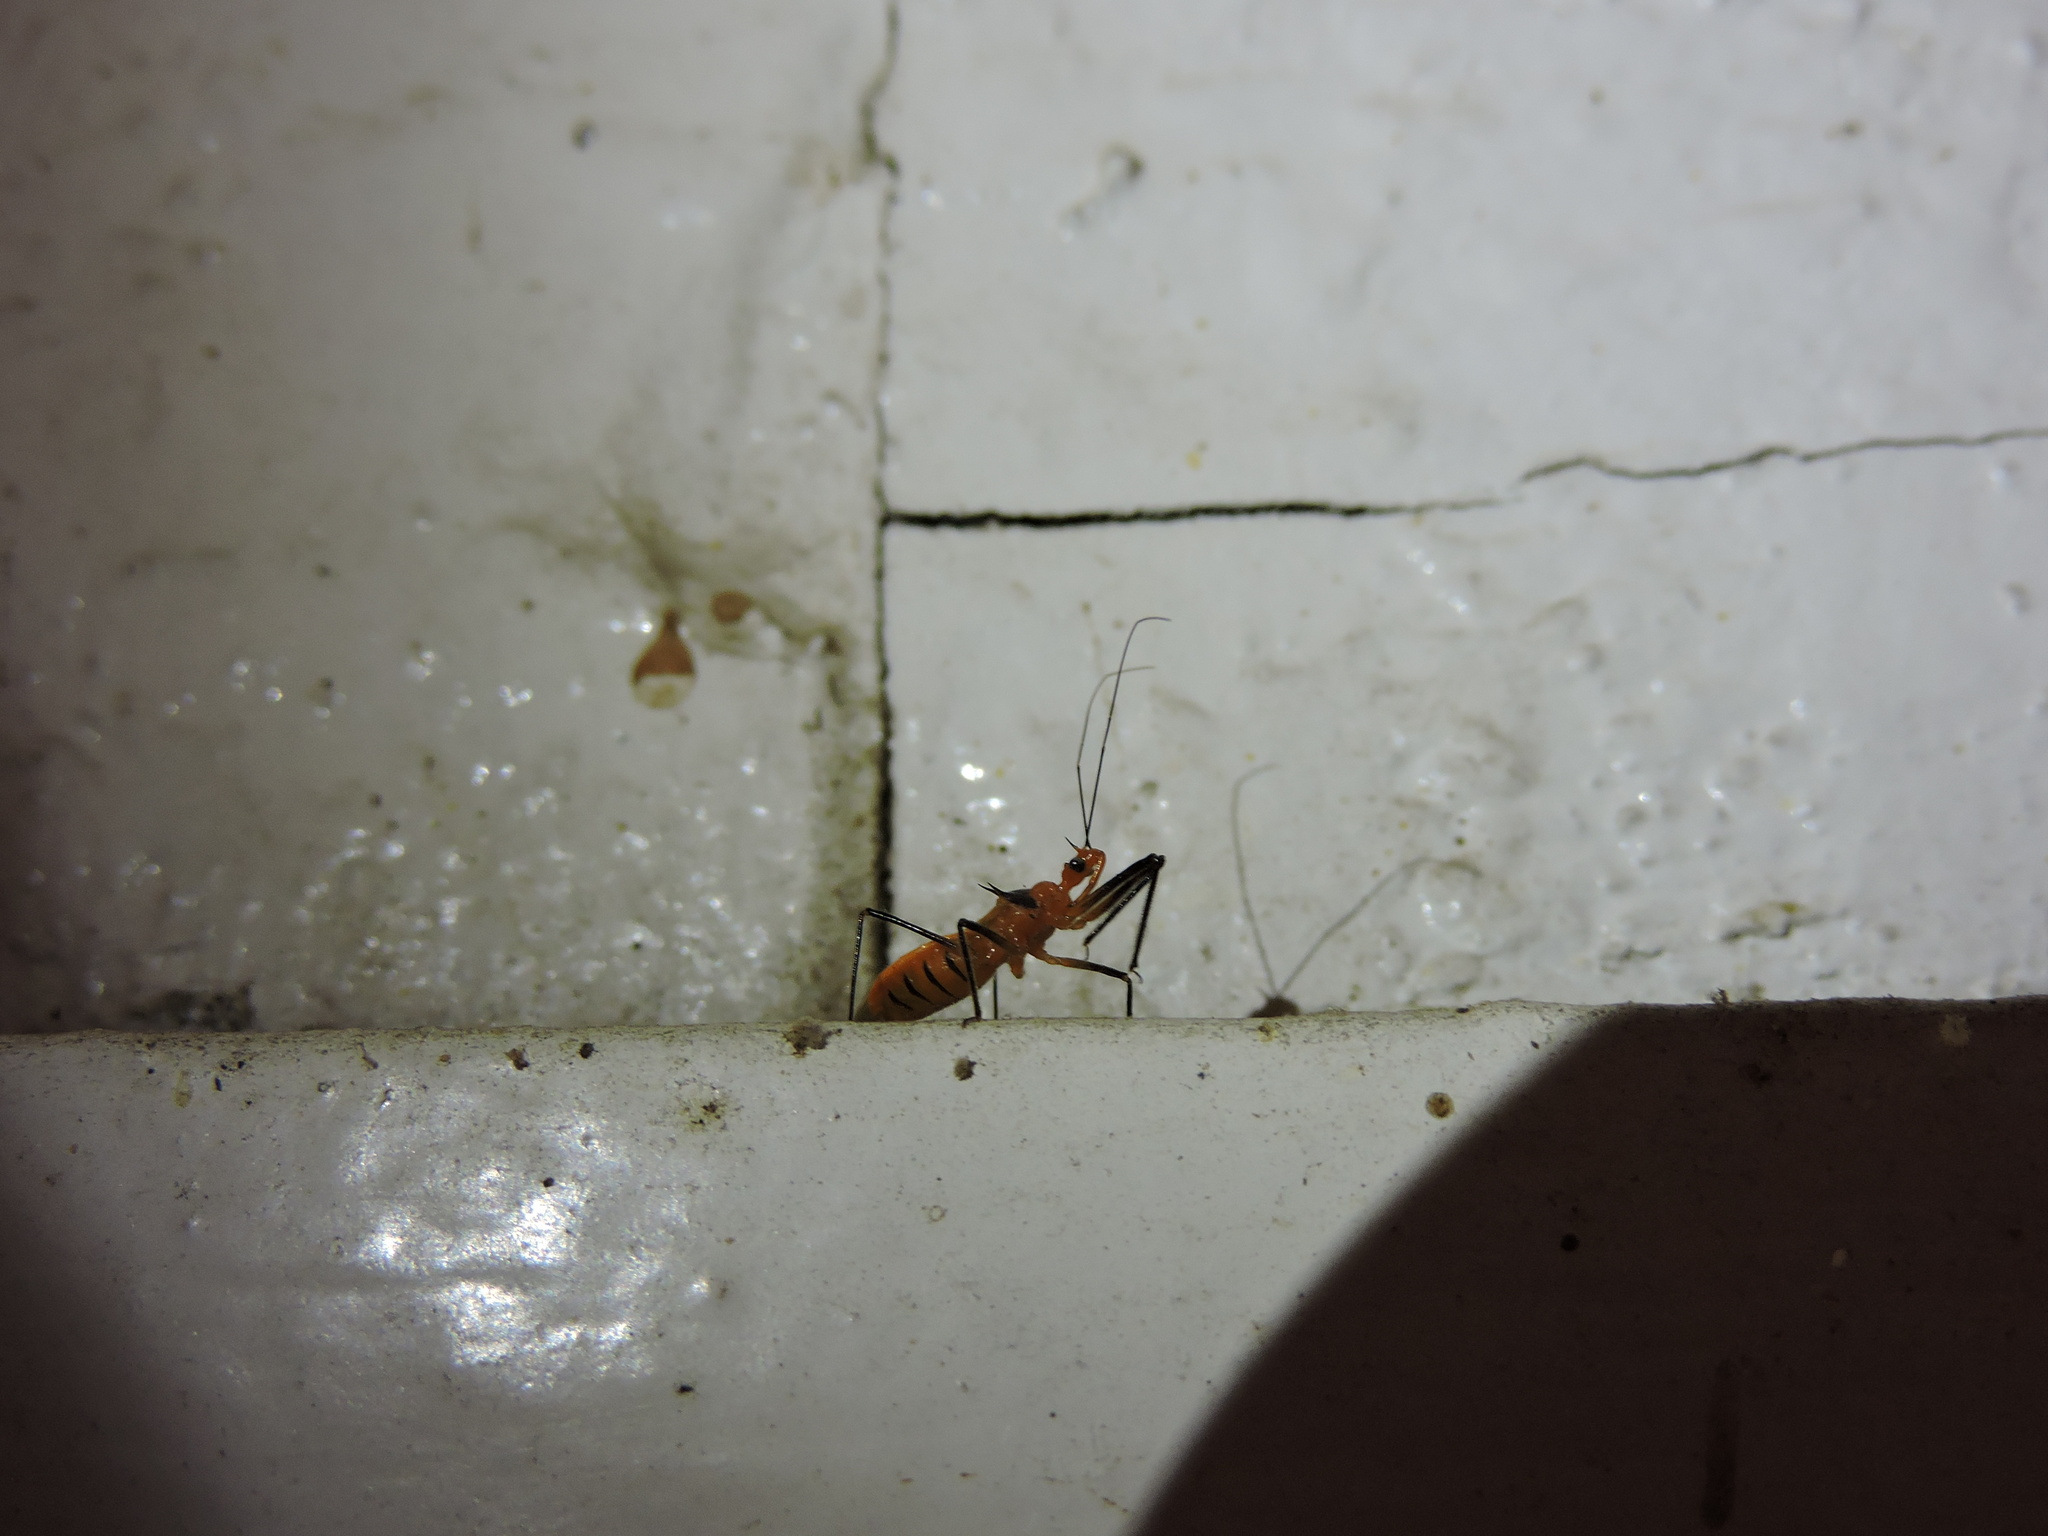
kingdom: Animalia
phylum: Arthropoda
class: Insecta
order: Hemiptera
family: Reduviidae
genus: Repipta
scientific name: Repipta taurus
